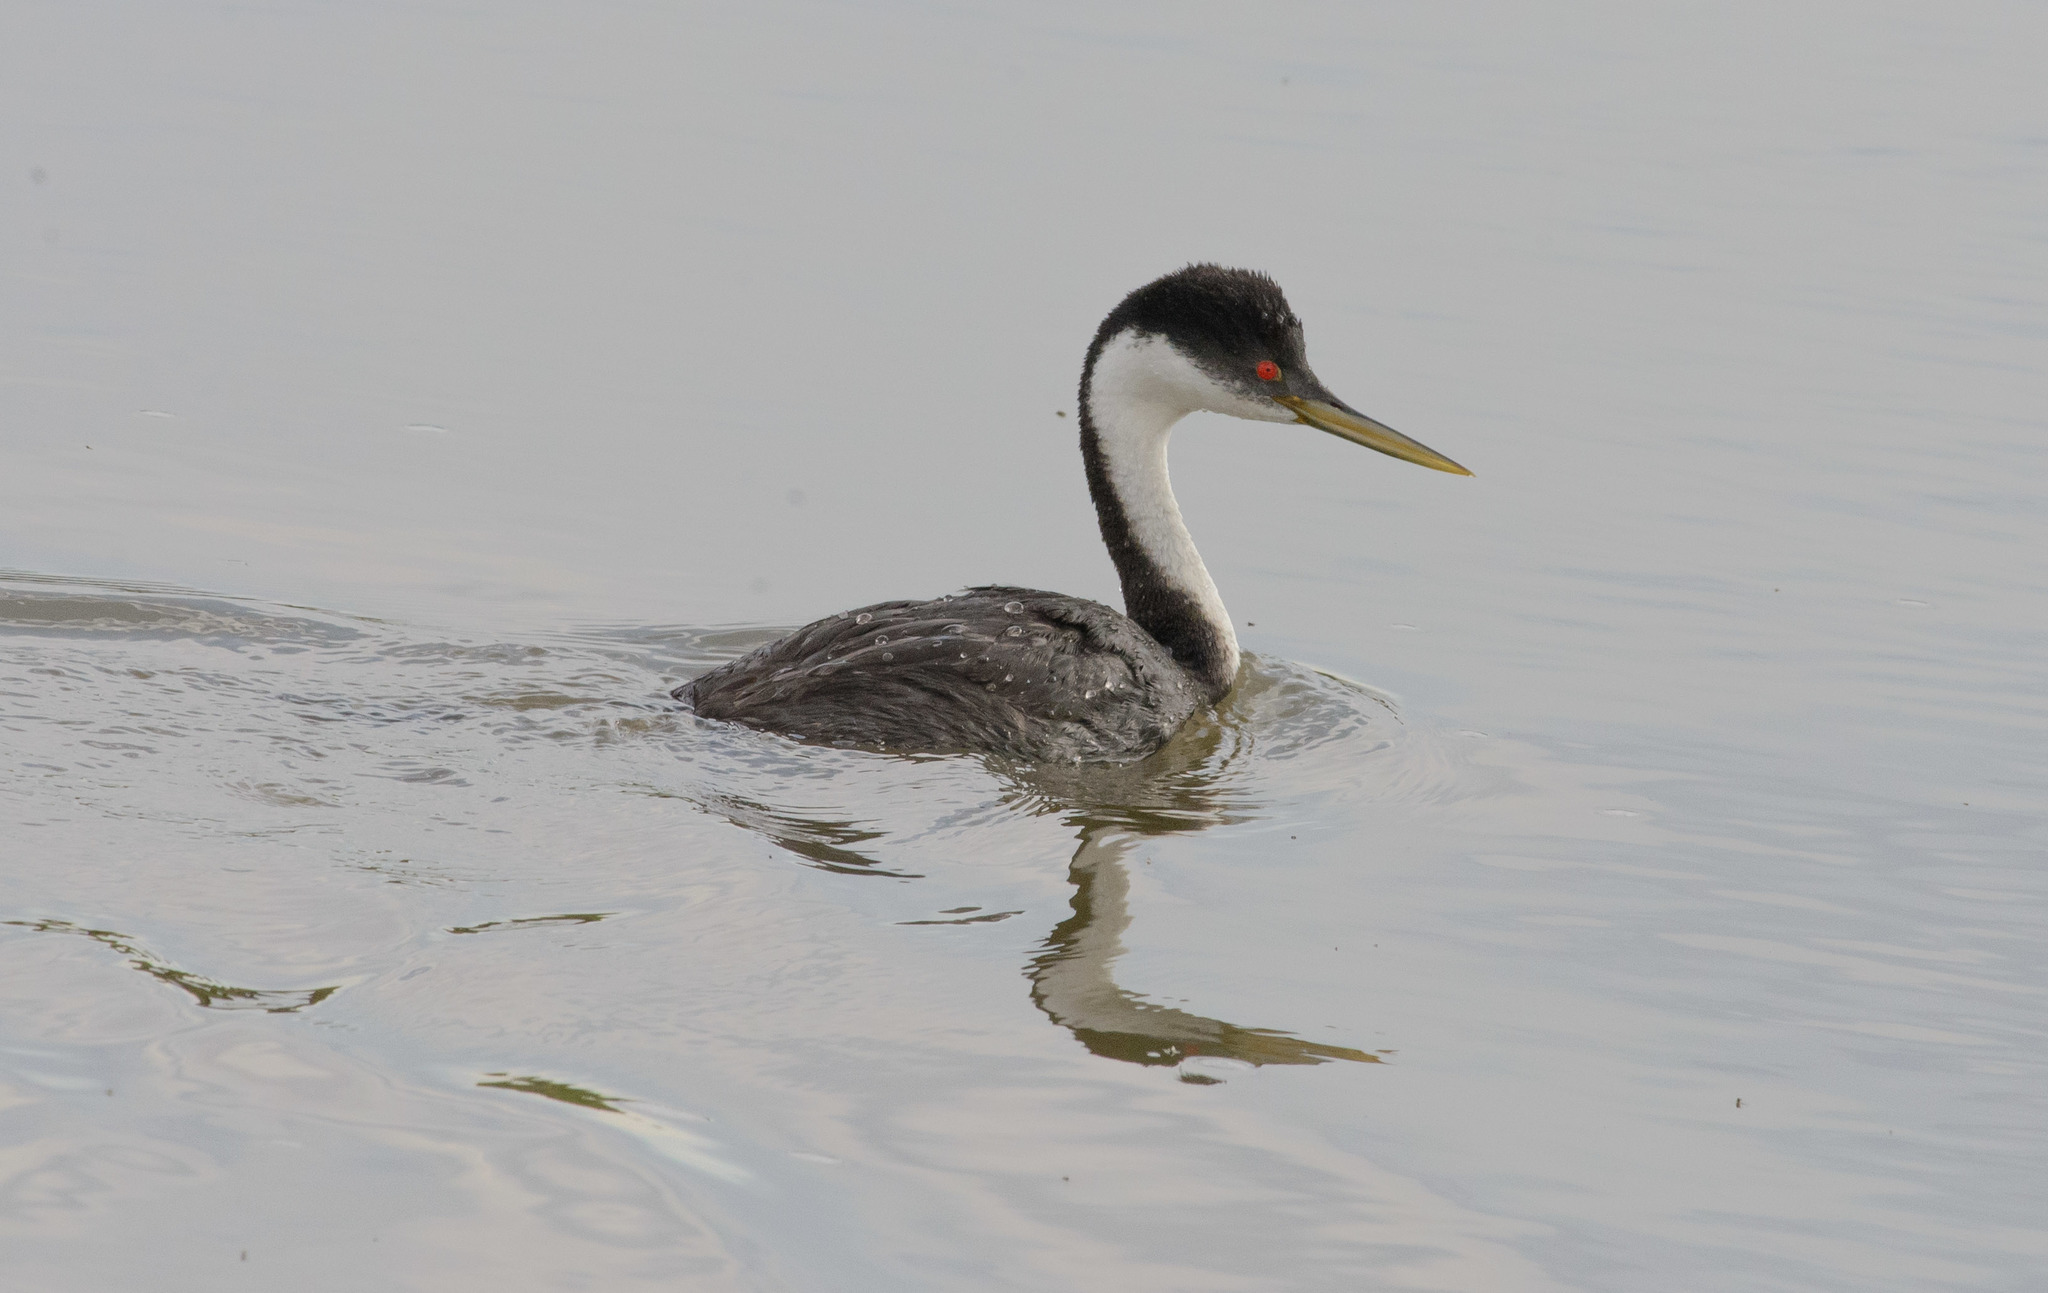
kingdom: Animalia
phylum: Chordata
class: Aves
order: Podicipediformes
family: Podicipedidae
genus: Aechmophorus
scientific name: Aechmophorus occidentalis
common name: Western grebe
